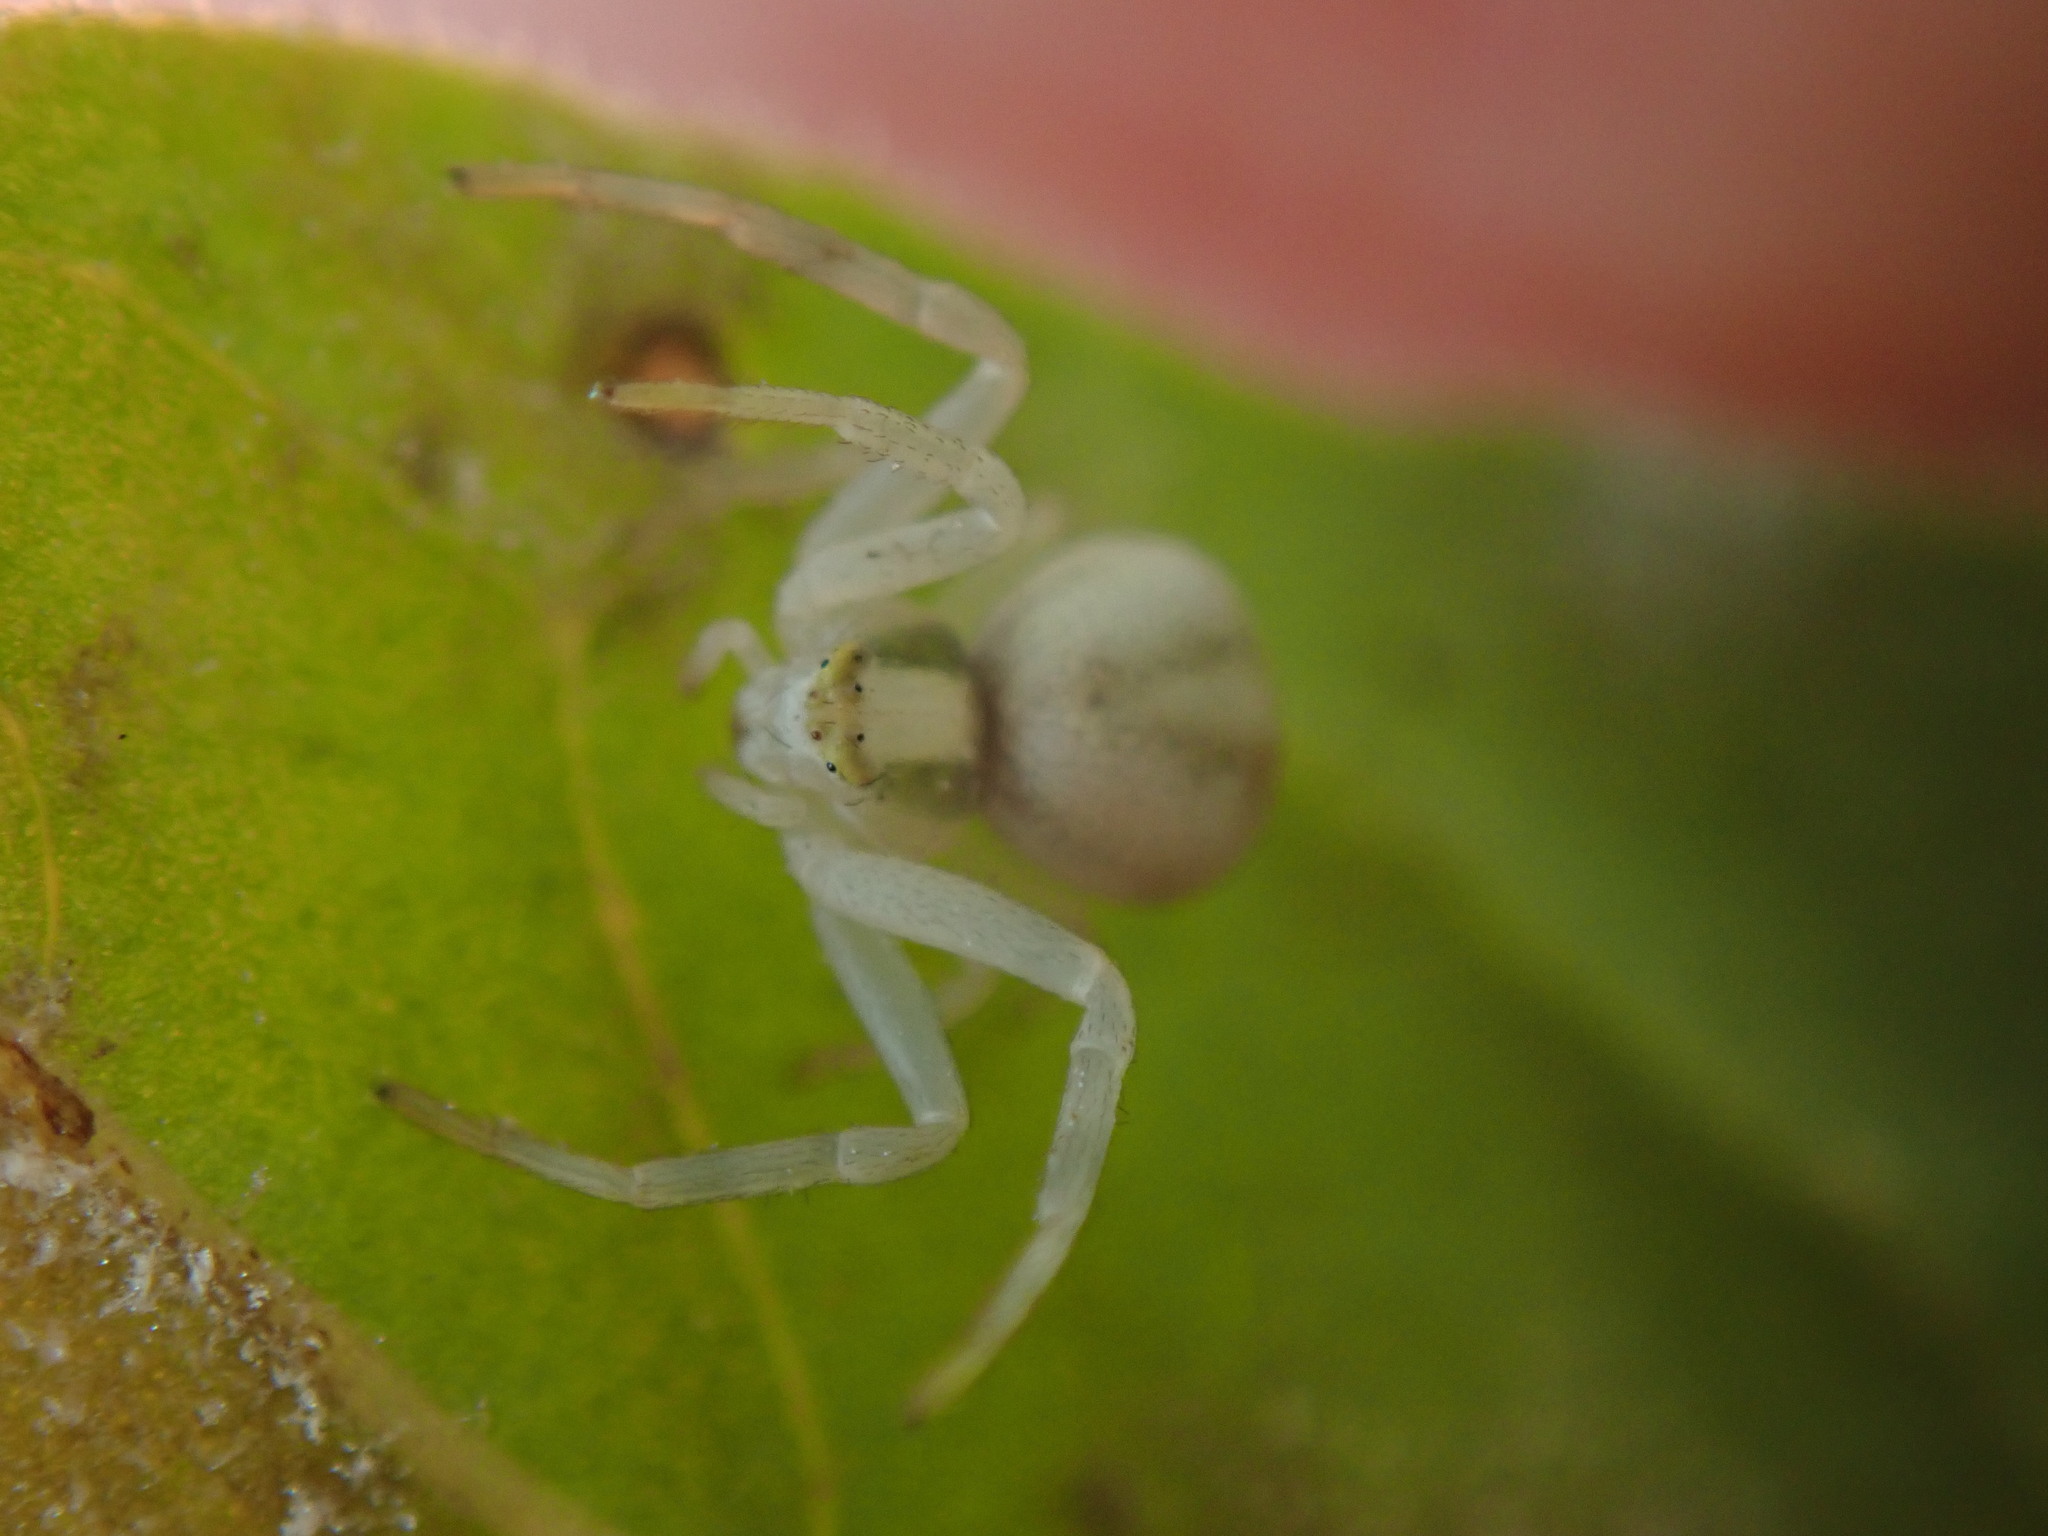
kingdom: Animalia
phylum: Arthropoda
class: Arachnida
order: Araneae
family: Thomisidae
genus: Misumena
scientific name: Misumena vatia
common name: Goldenrod crab spider
